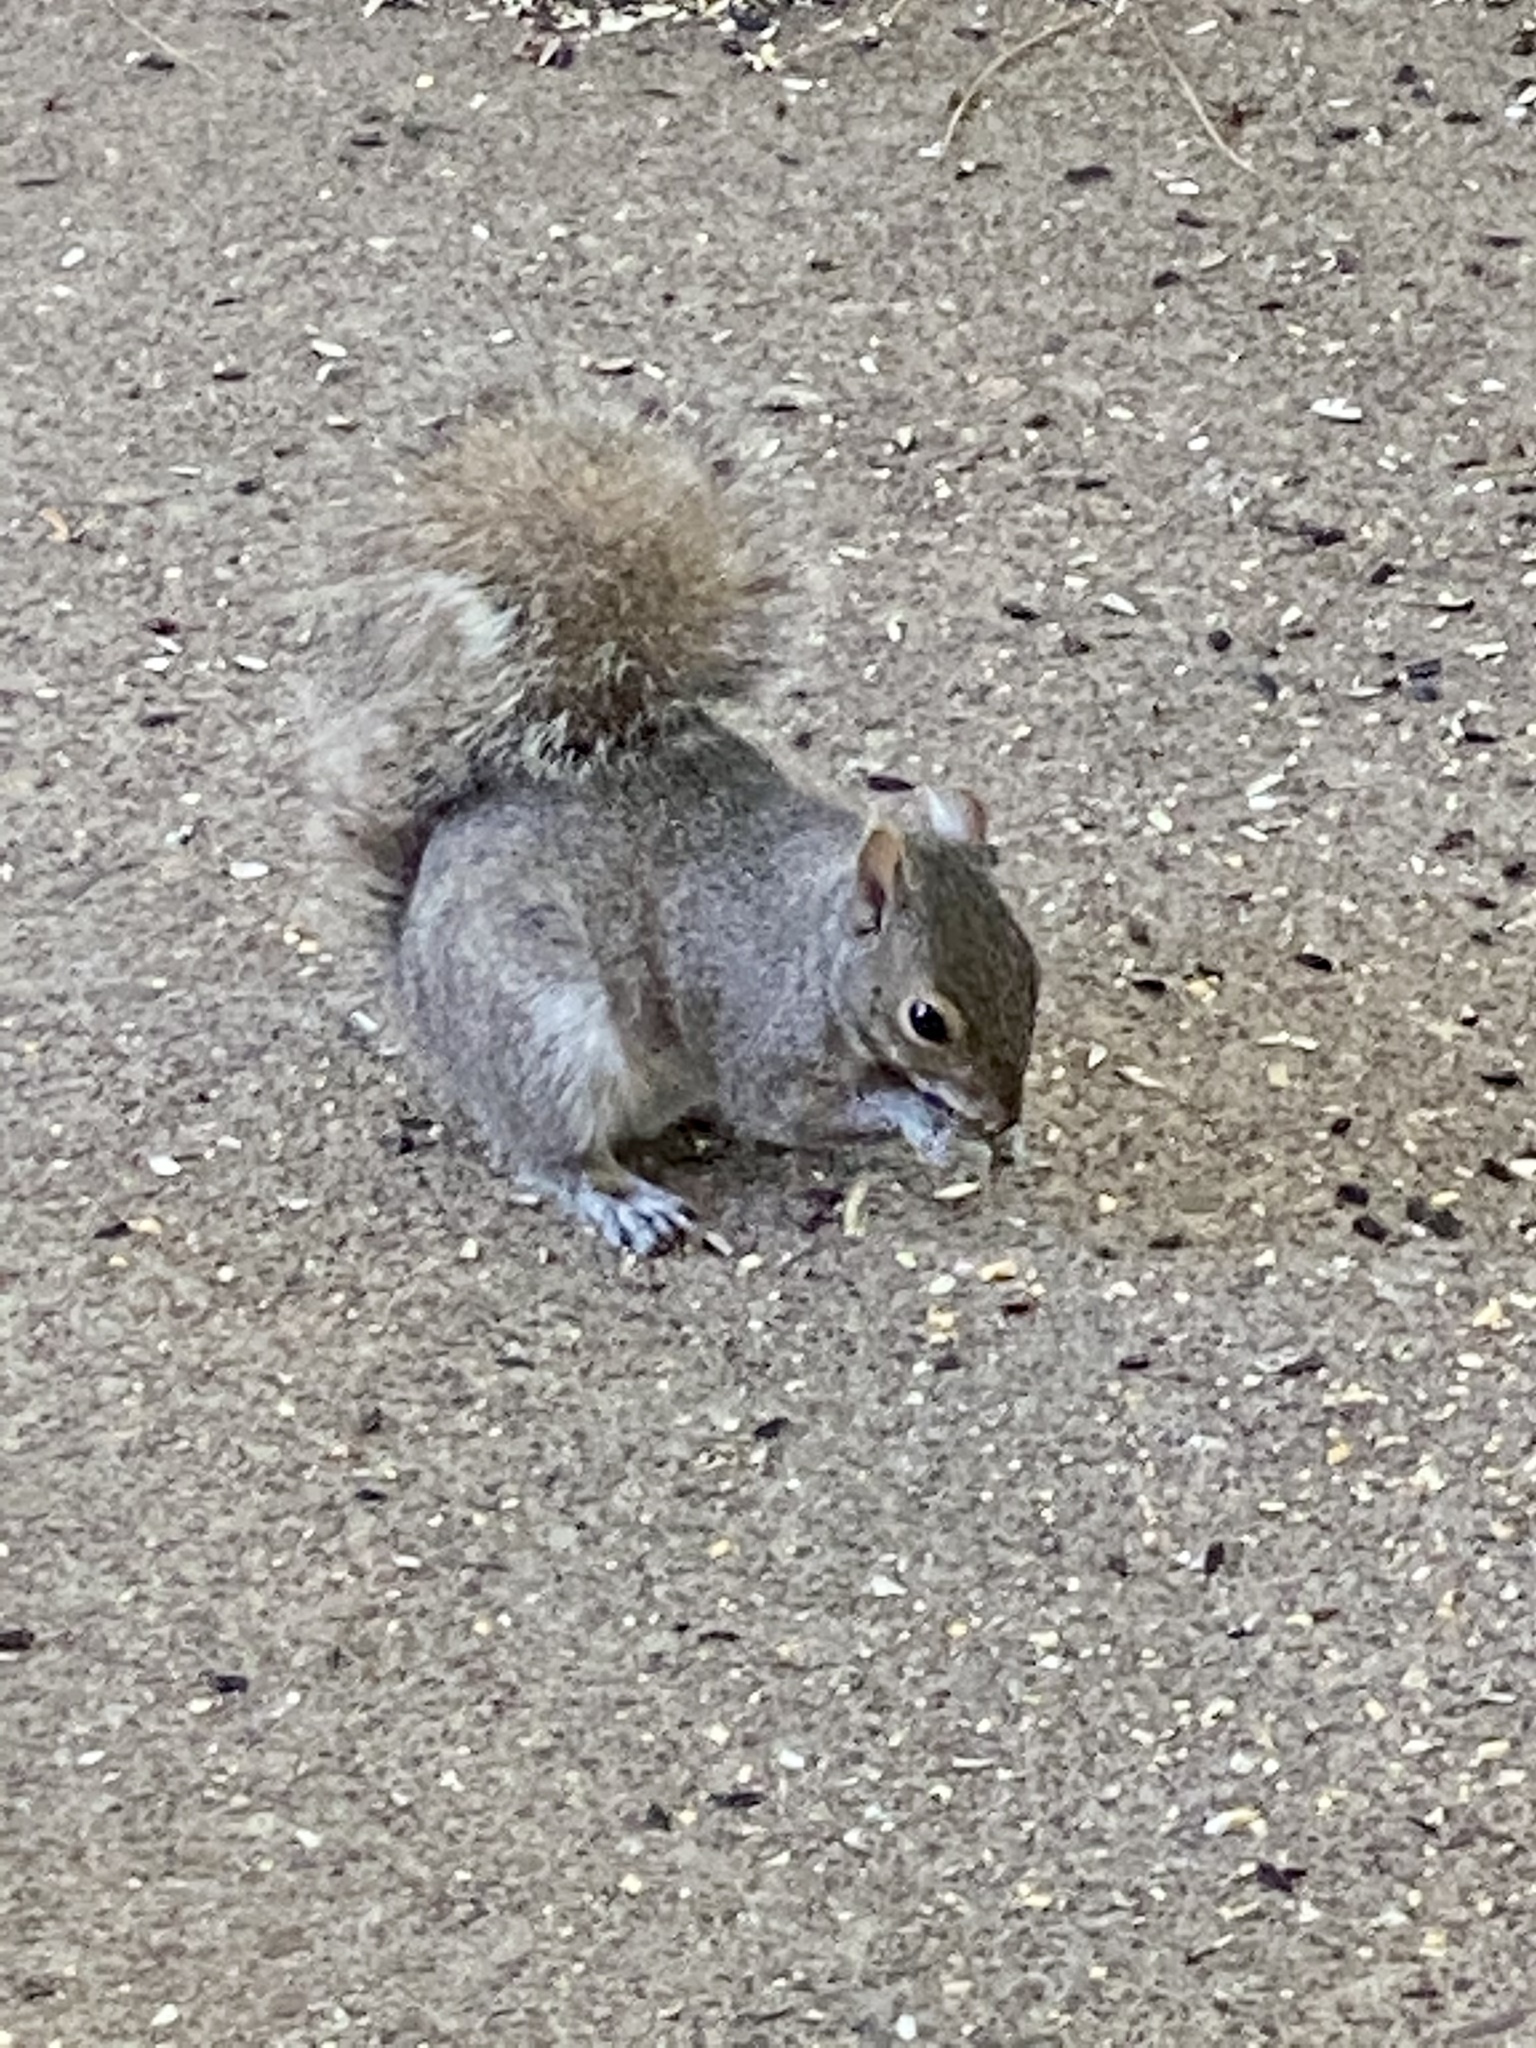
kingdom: Animalia
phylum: Chordata
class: Mammalia
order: Rodentia
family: Sciuridae
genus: Sciurus
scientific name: Sciurus carolinensis
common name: Eastern gray squirrel
